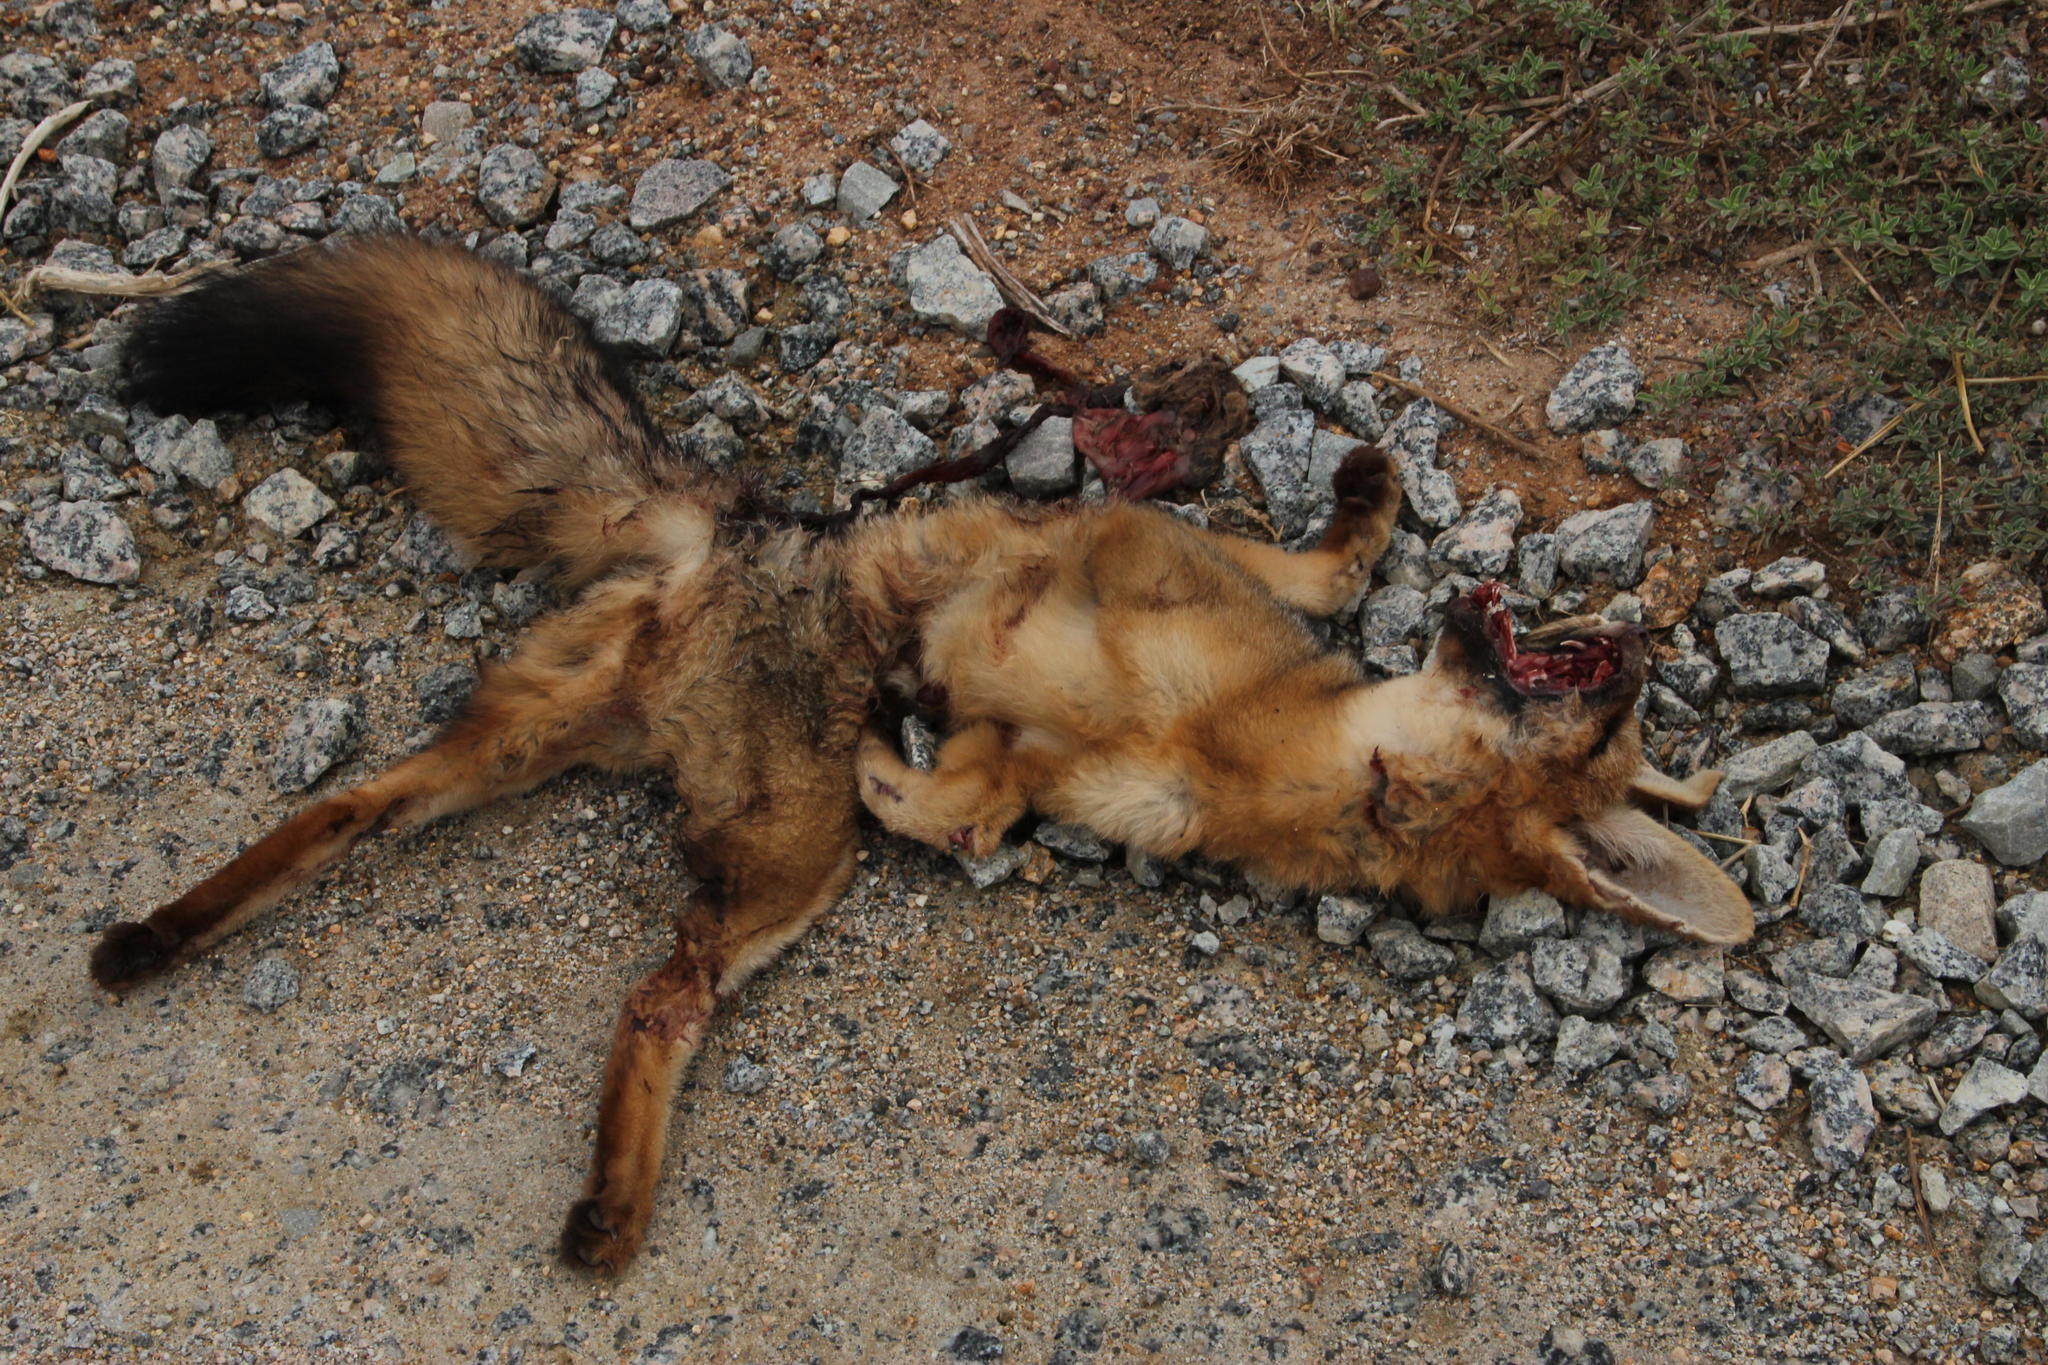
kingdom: Animalia
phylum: Chordata
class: Mammalia
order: Carnivora
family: Canidae
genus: Vulpes
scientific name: Vulpes chama
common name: Cape fox
